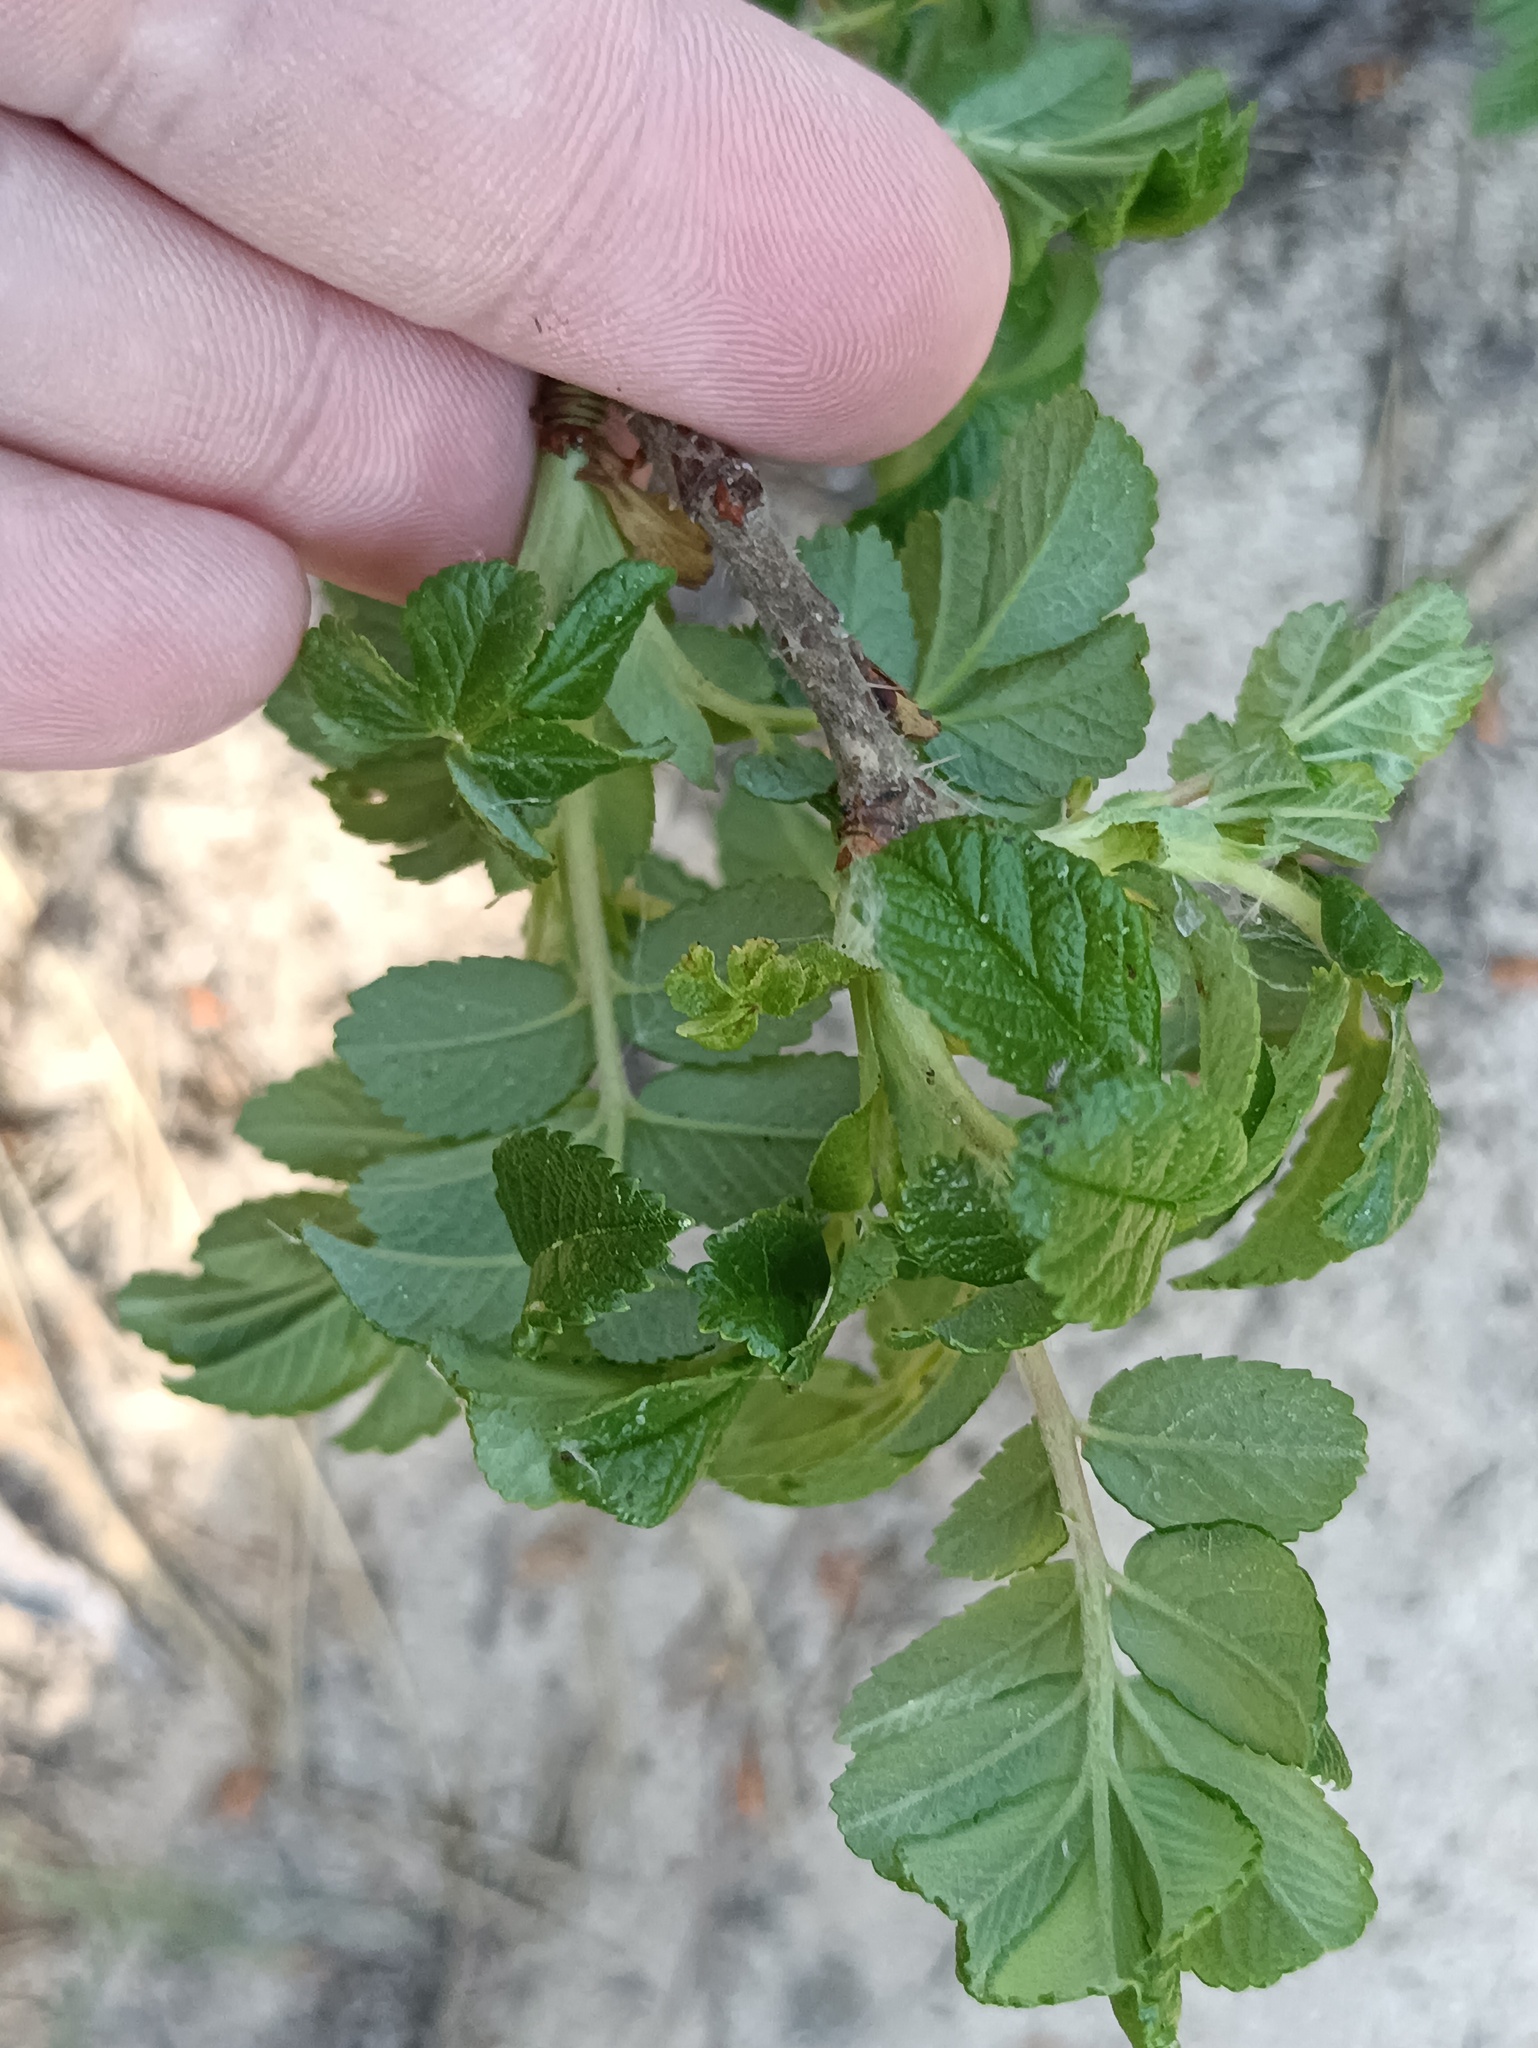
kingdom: Plantae
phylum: Tracheophyta
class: Magnoliopsida
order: Rosales
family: Rosaceae
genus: Rosa
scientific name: Rosa rugosa
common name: Japanese rose
